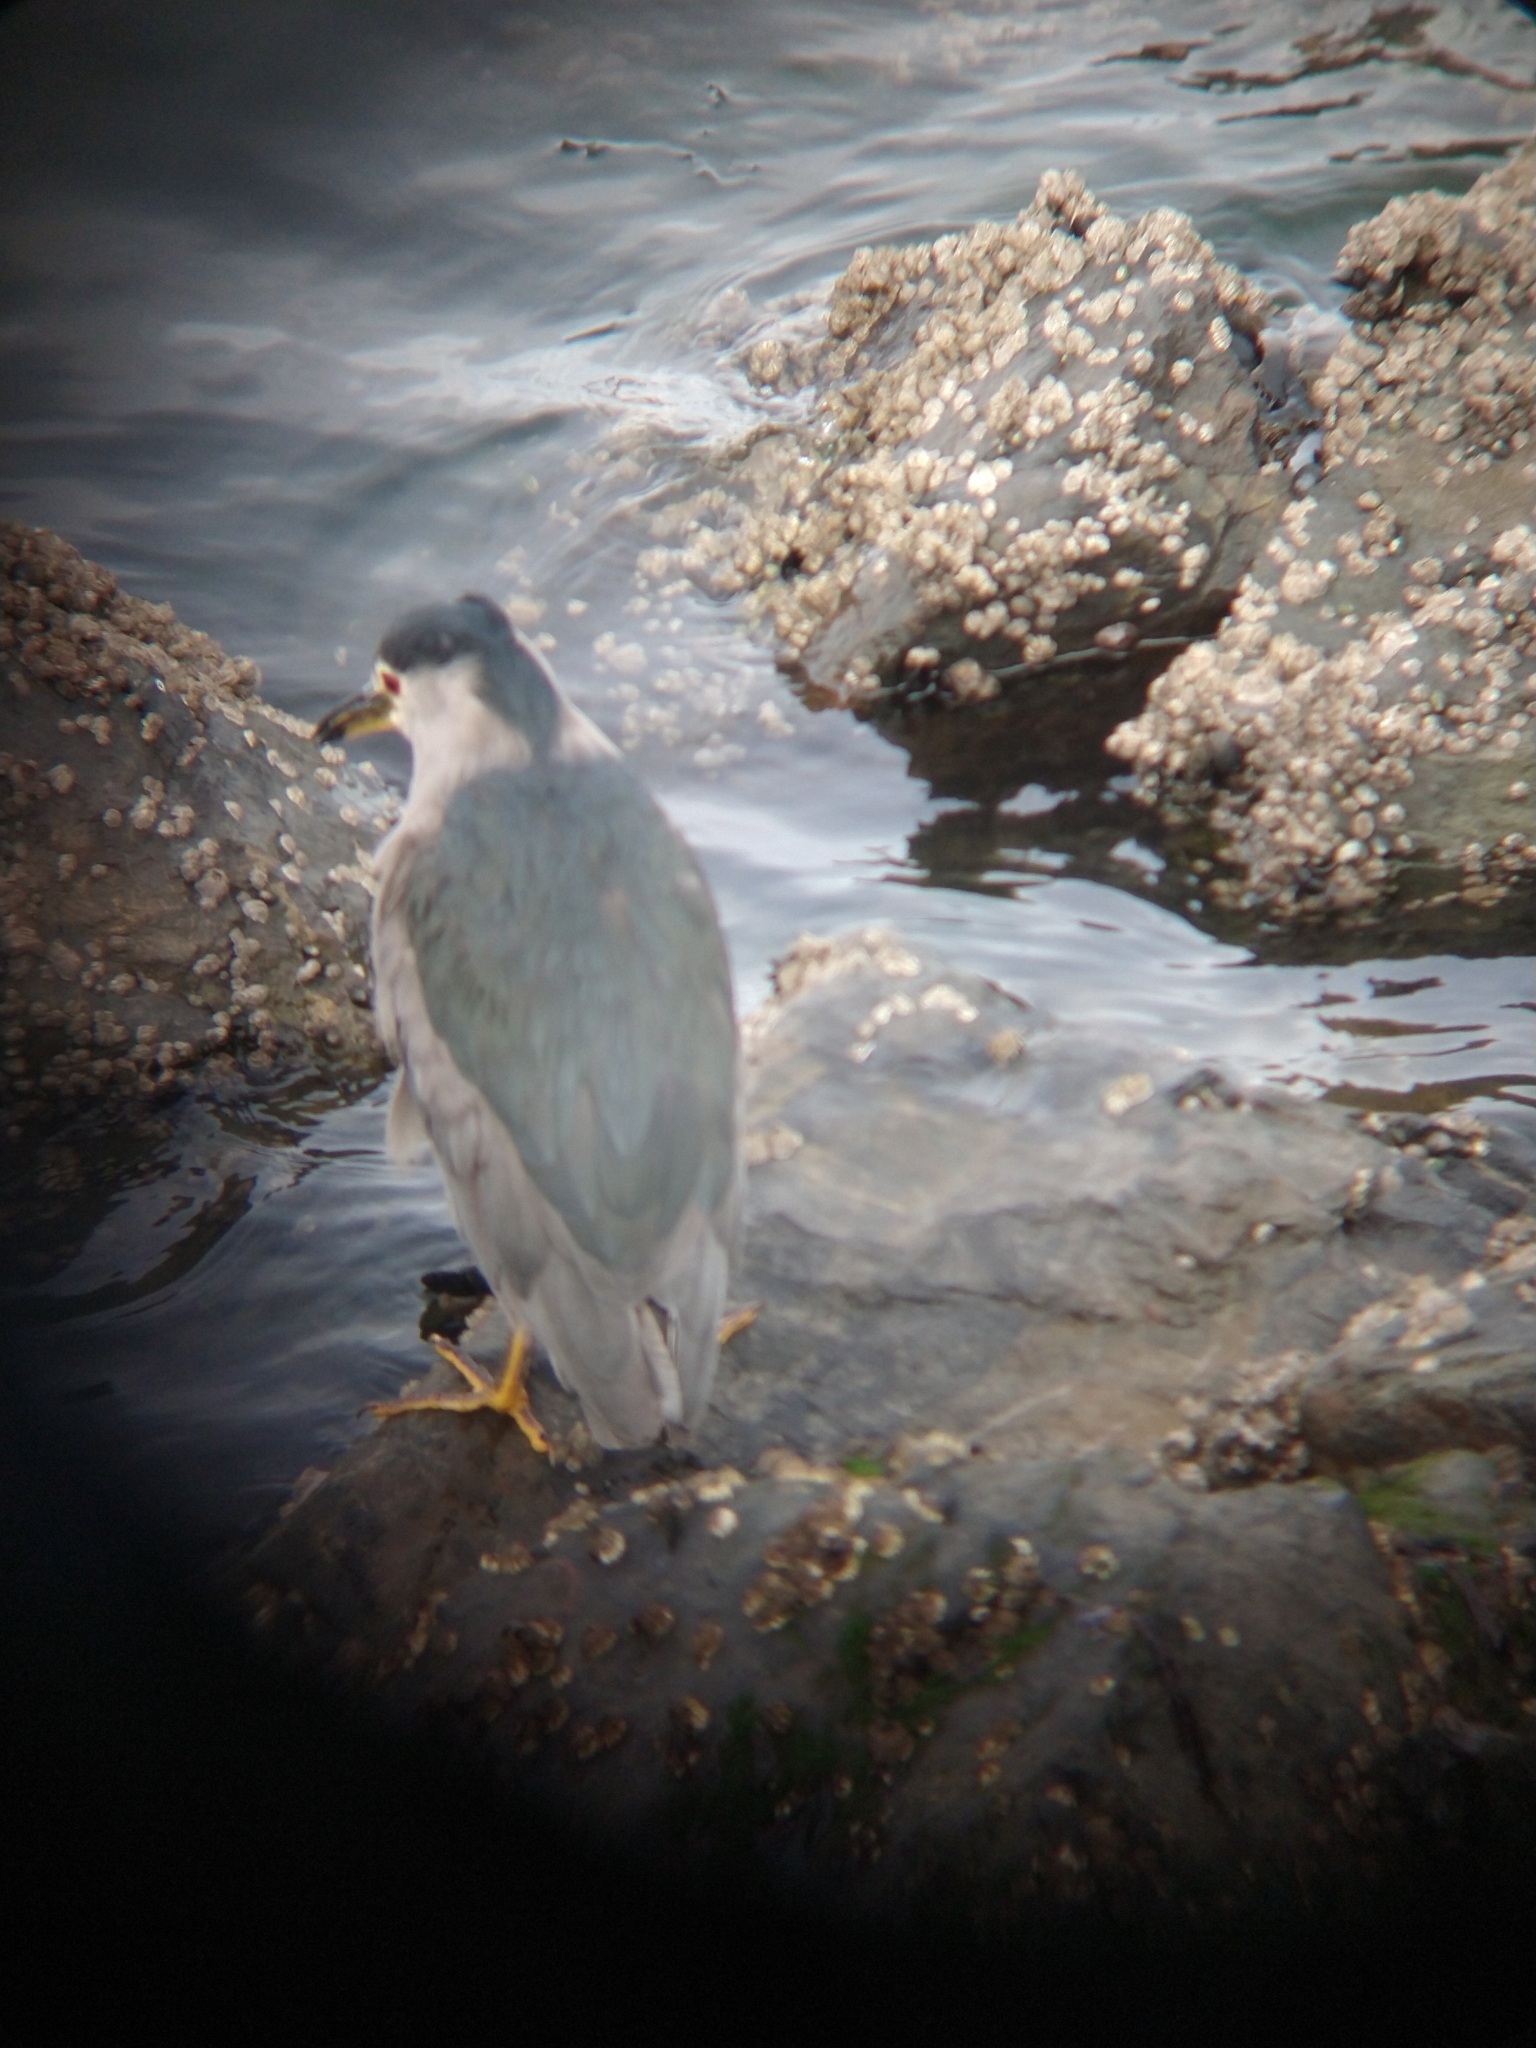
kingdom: Animalia
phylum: Chordata
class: Aves
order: Pelecaniformes
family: Ardeidae
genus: Nycticorax
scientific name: Nycticorax nycticorax
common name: Black-crowned night heron
